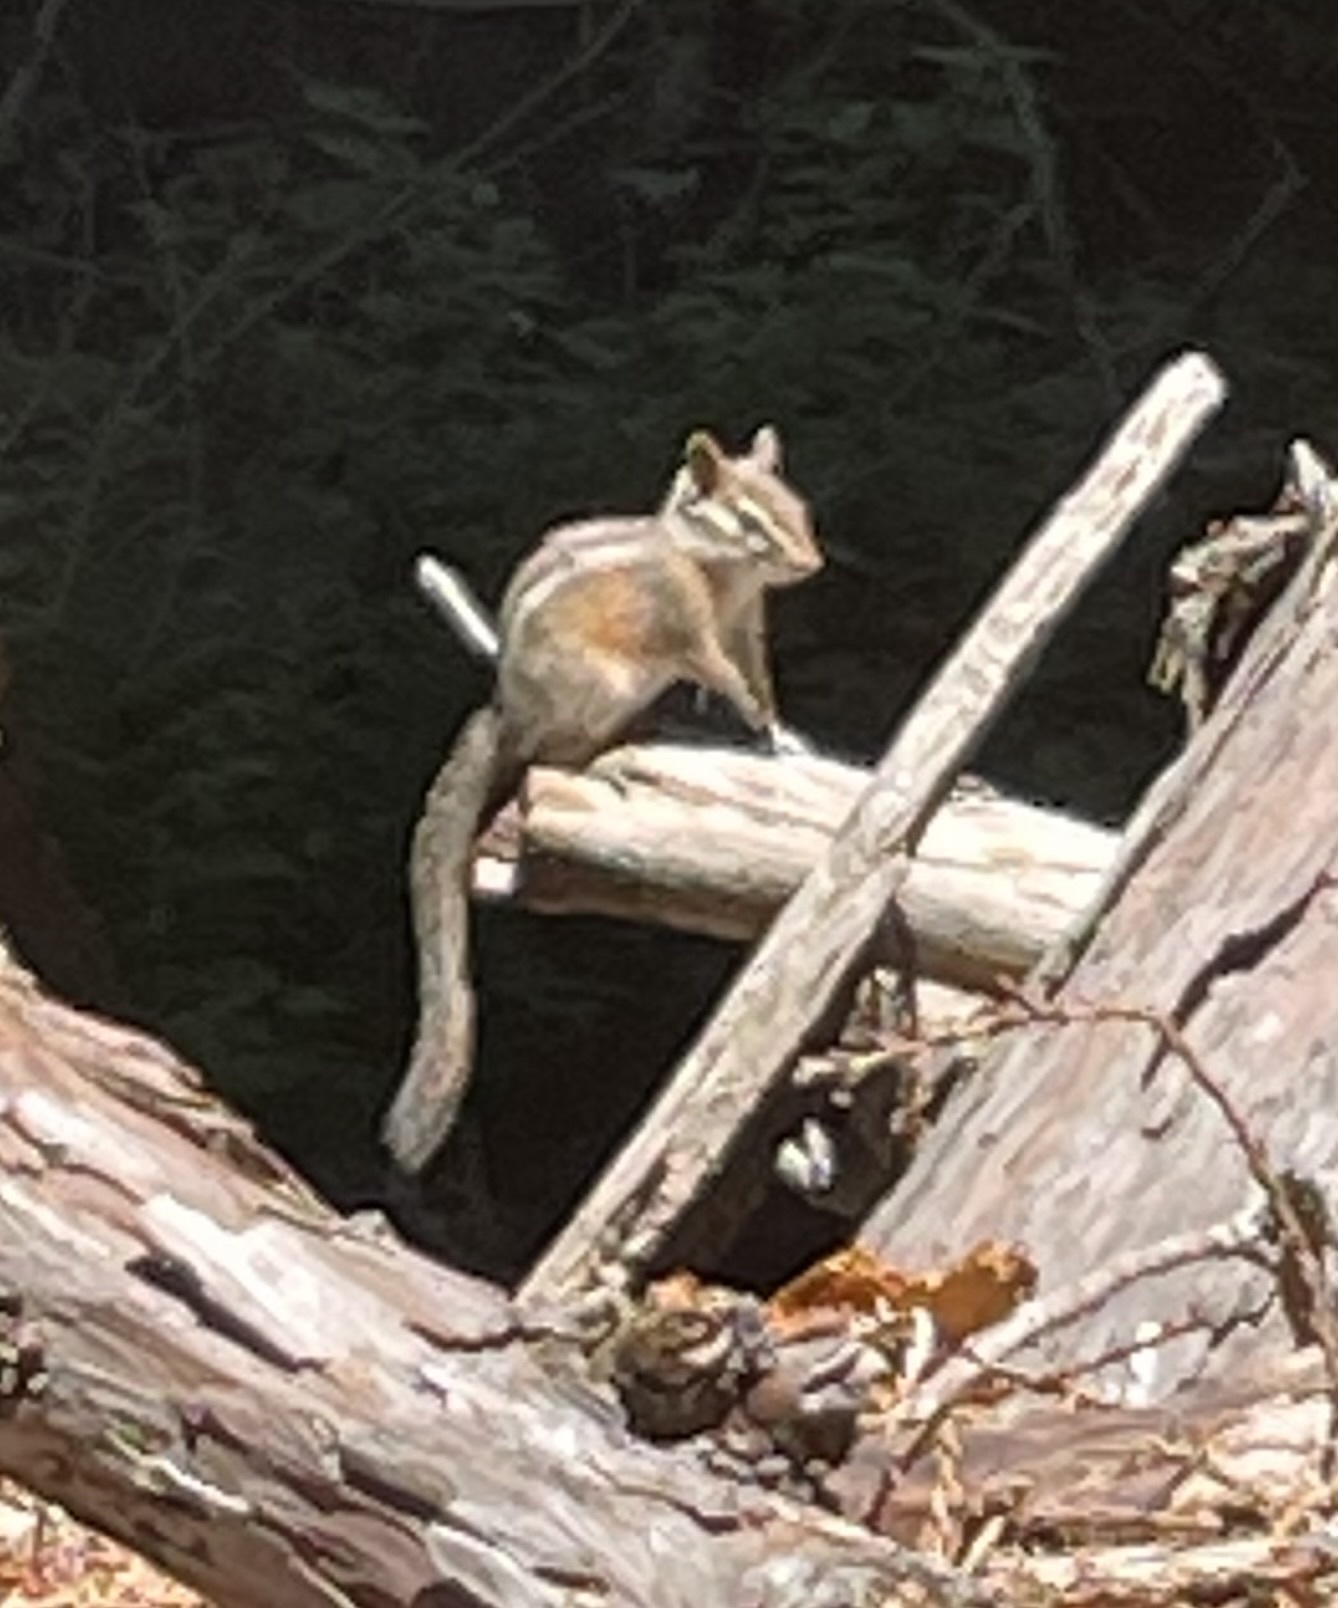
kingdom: Animalia
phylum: Chordata
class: Mammalia
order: Rodentia
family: Sciuridae
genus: Tamias
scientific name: Tamias merriami
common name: Merriam's chipmunk
